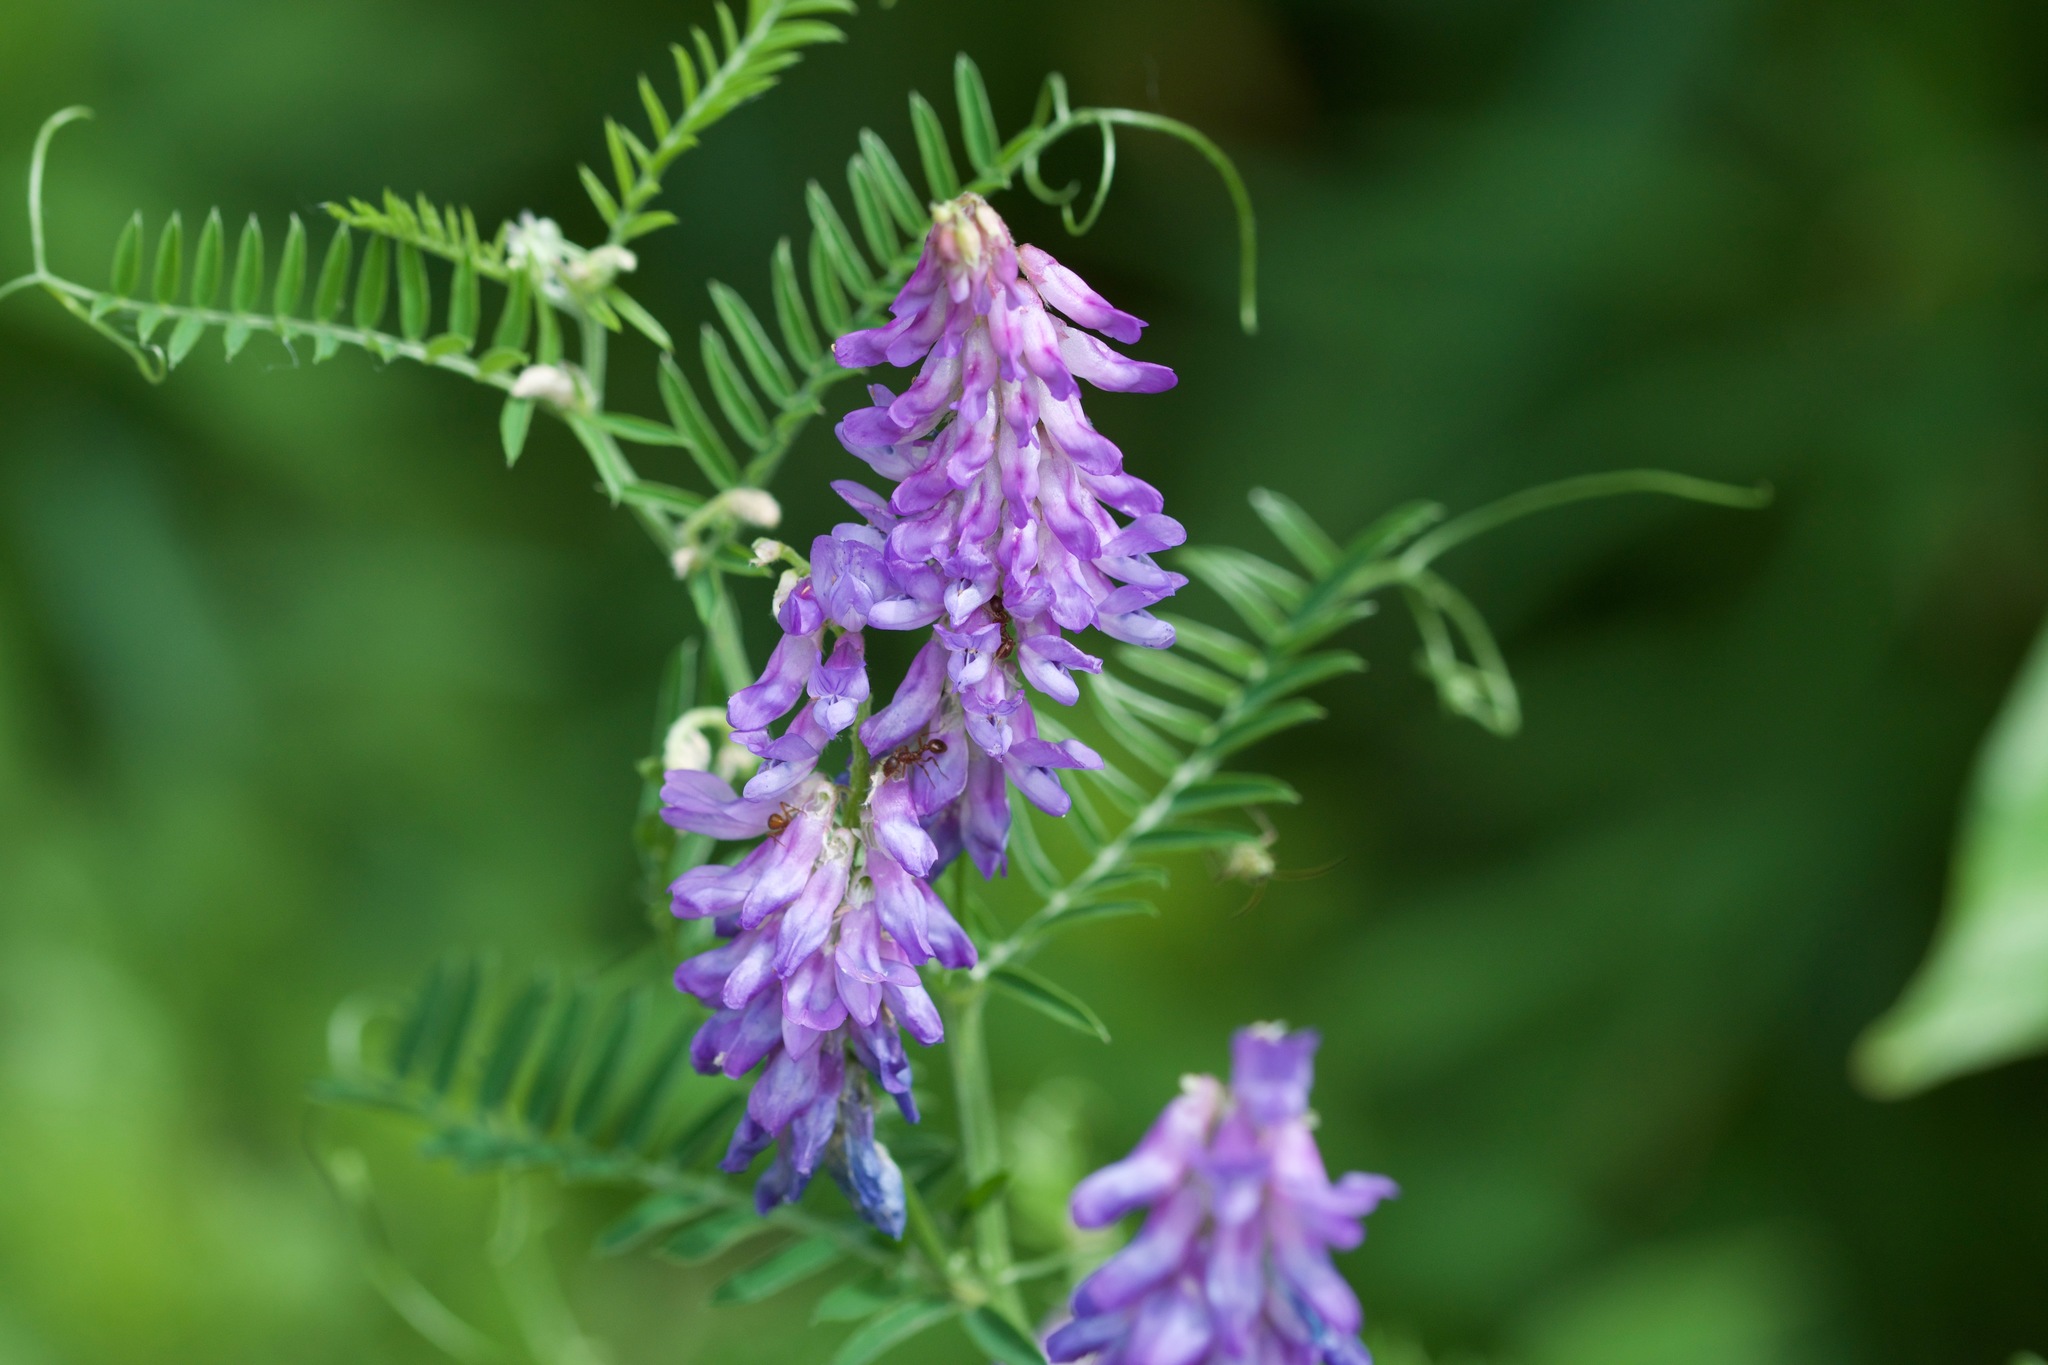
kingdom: Plantae
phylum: Tracheophyta
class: Magnoliopsida
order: Fabales
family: Fabaceae
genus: Vicia
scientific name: Vicia cracca
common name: Bird vetch
